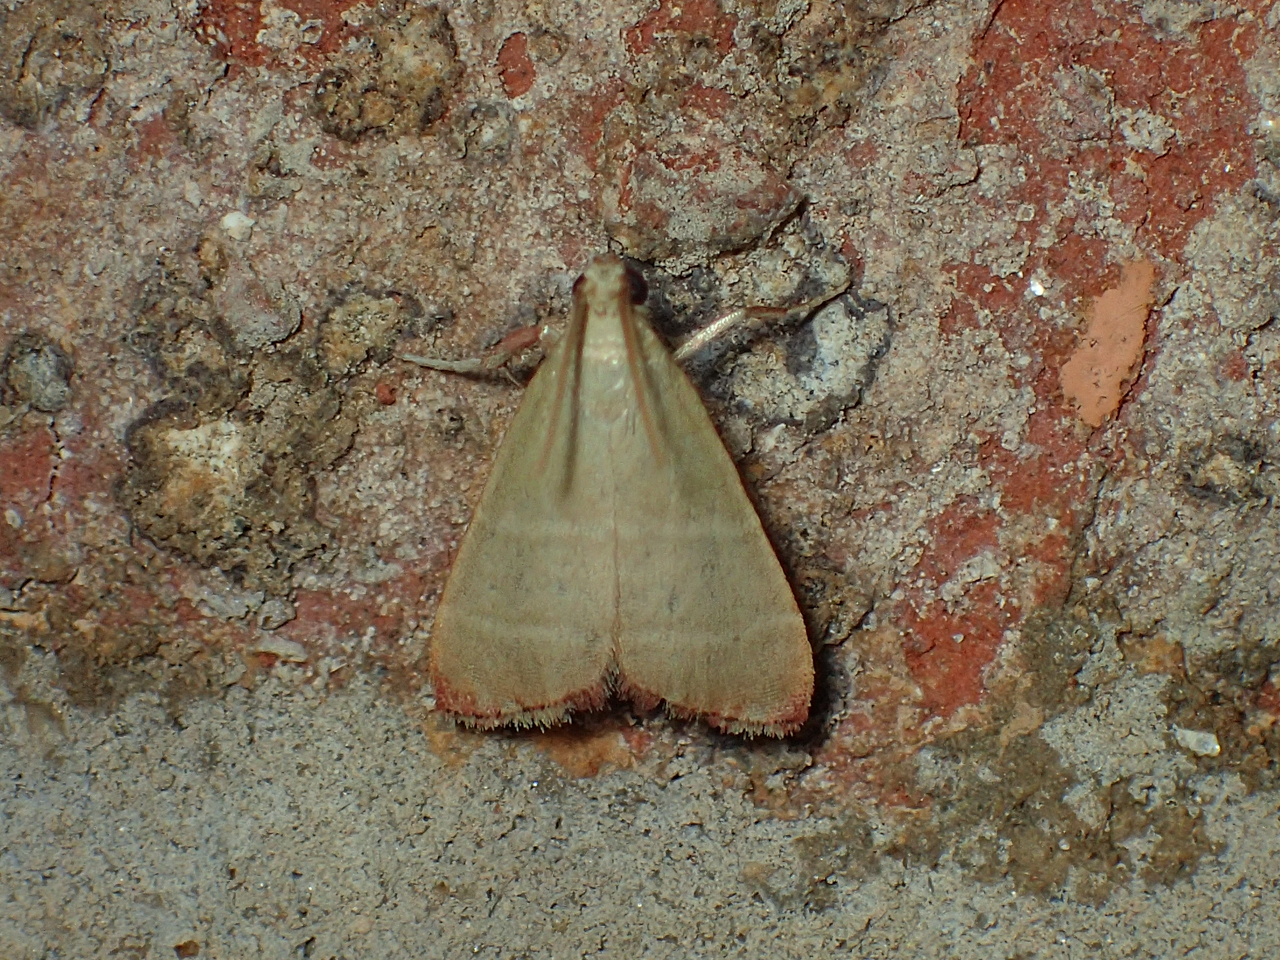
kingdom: Animalia
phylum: Arthropoda
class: Insecta
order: Lepidoptera
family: Pyralidae
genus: Arta
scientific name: Arta olivalis
